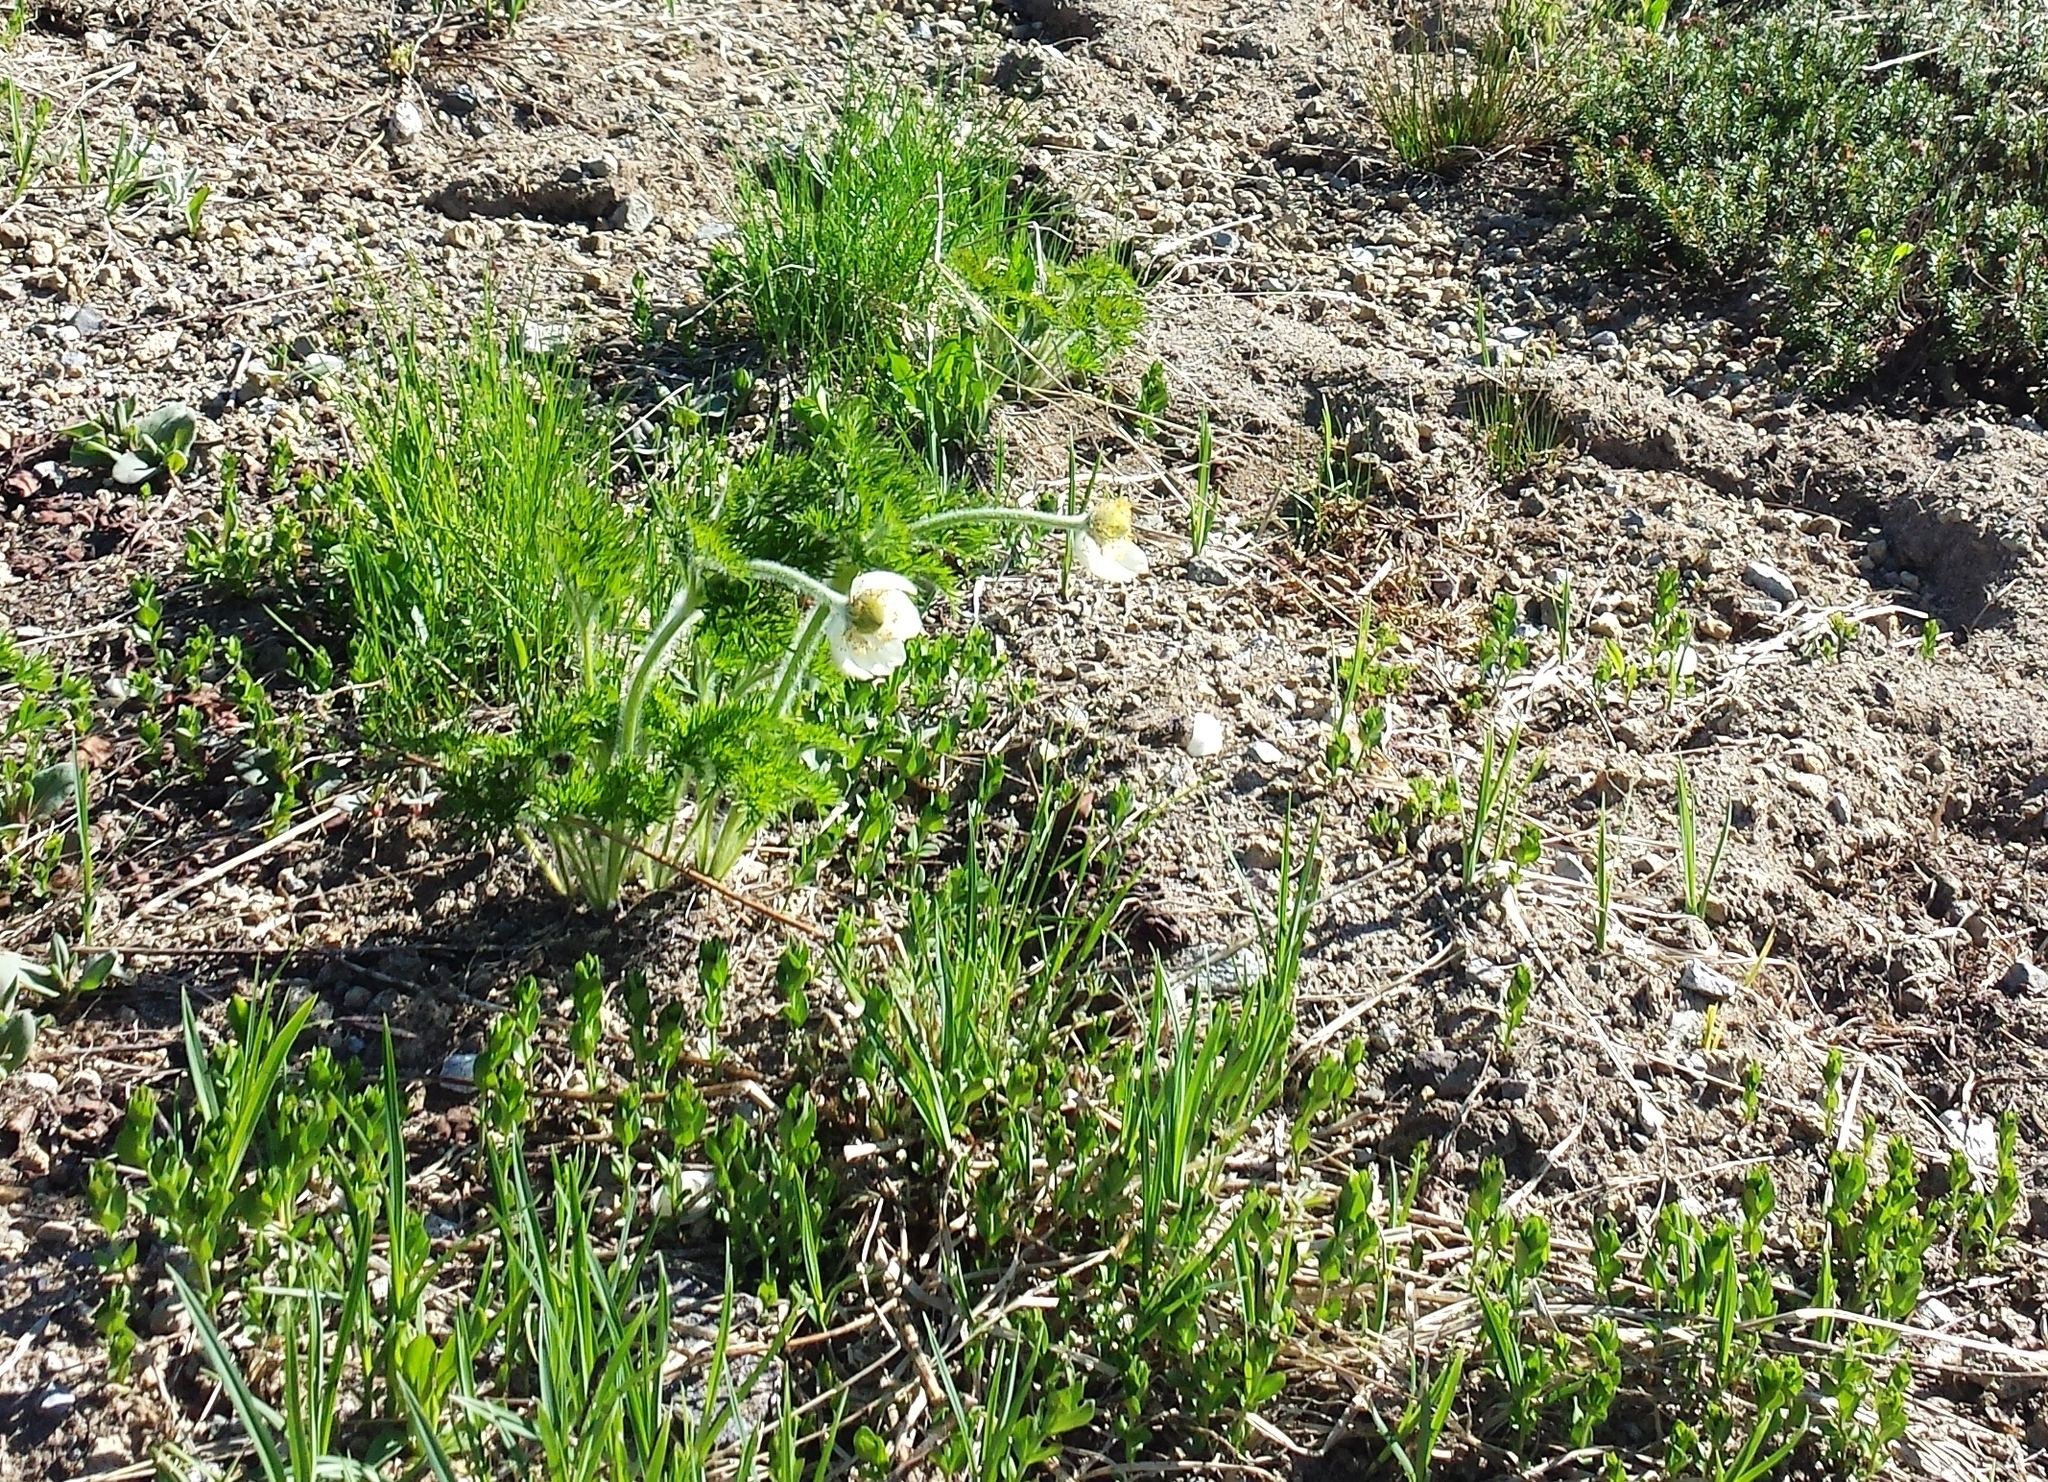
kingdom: Plantae
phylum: Tracheophyta
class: Magnoliopsida
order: Ranunculales
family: Ranunculaceae
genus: Pulsatilla
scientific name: Pulsatilla occidentalis
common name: Mountain pasqueflower
